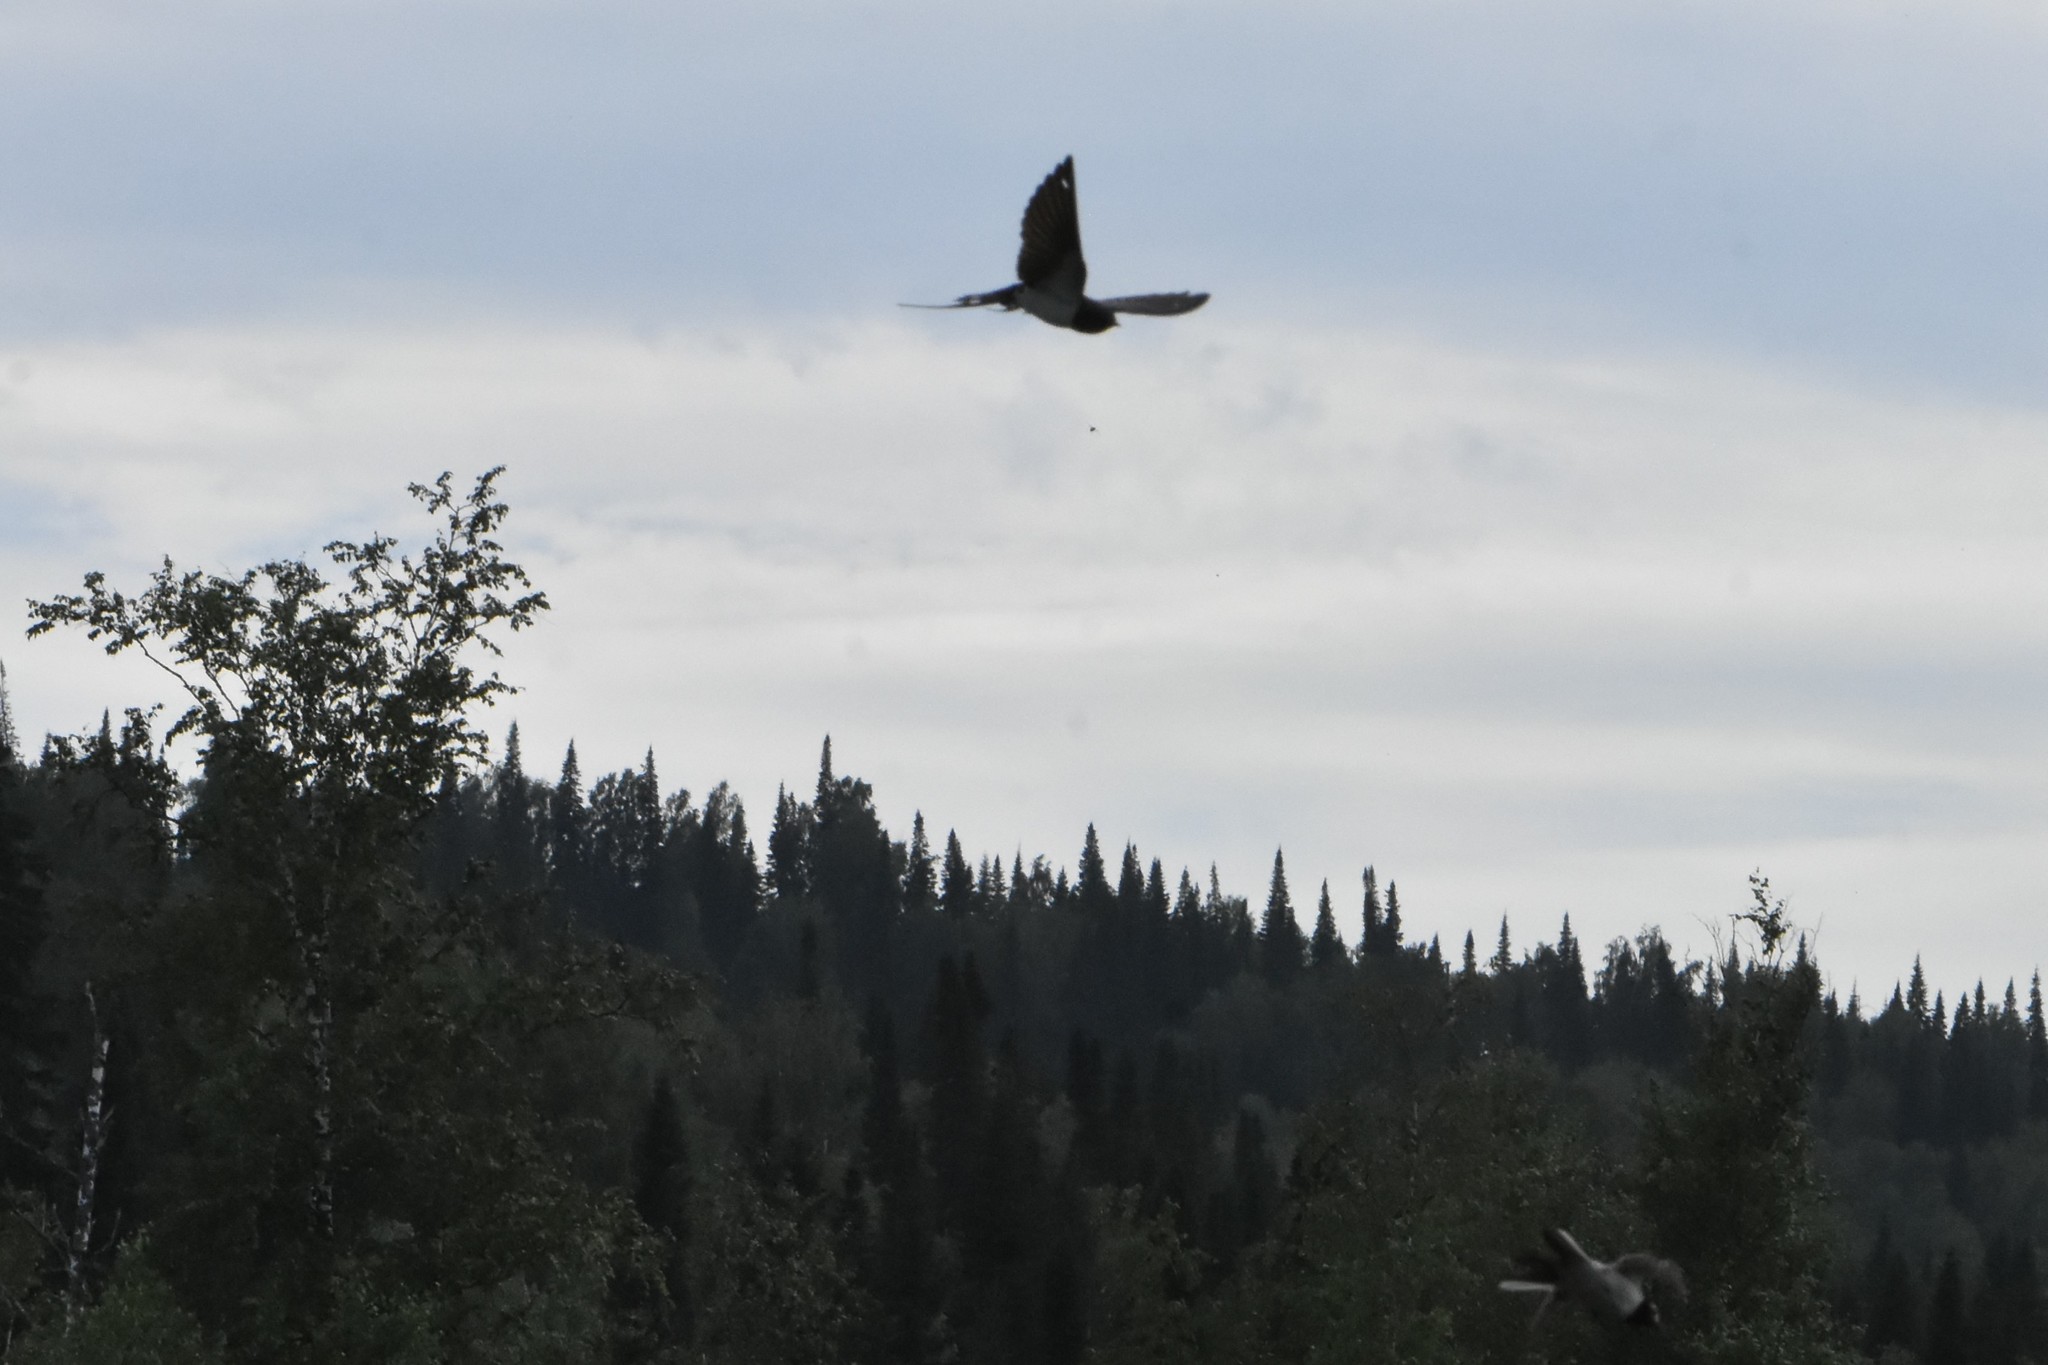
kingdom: Animalia
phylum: Chordata
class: Aves
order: Passeriformes
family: Hirundinidae
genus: Hirundo
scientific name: Hirundo rustica
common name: Barn swallow
